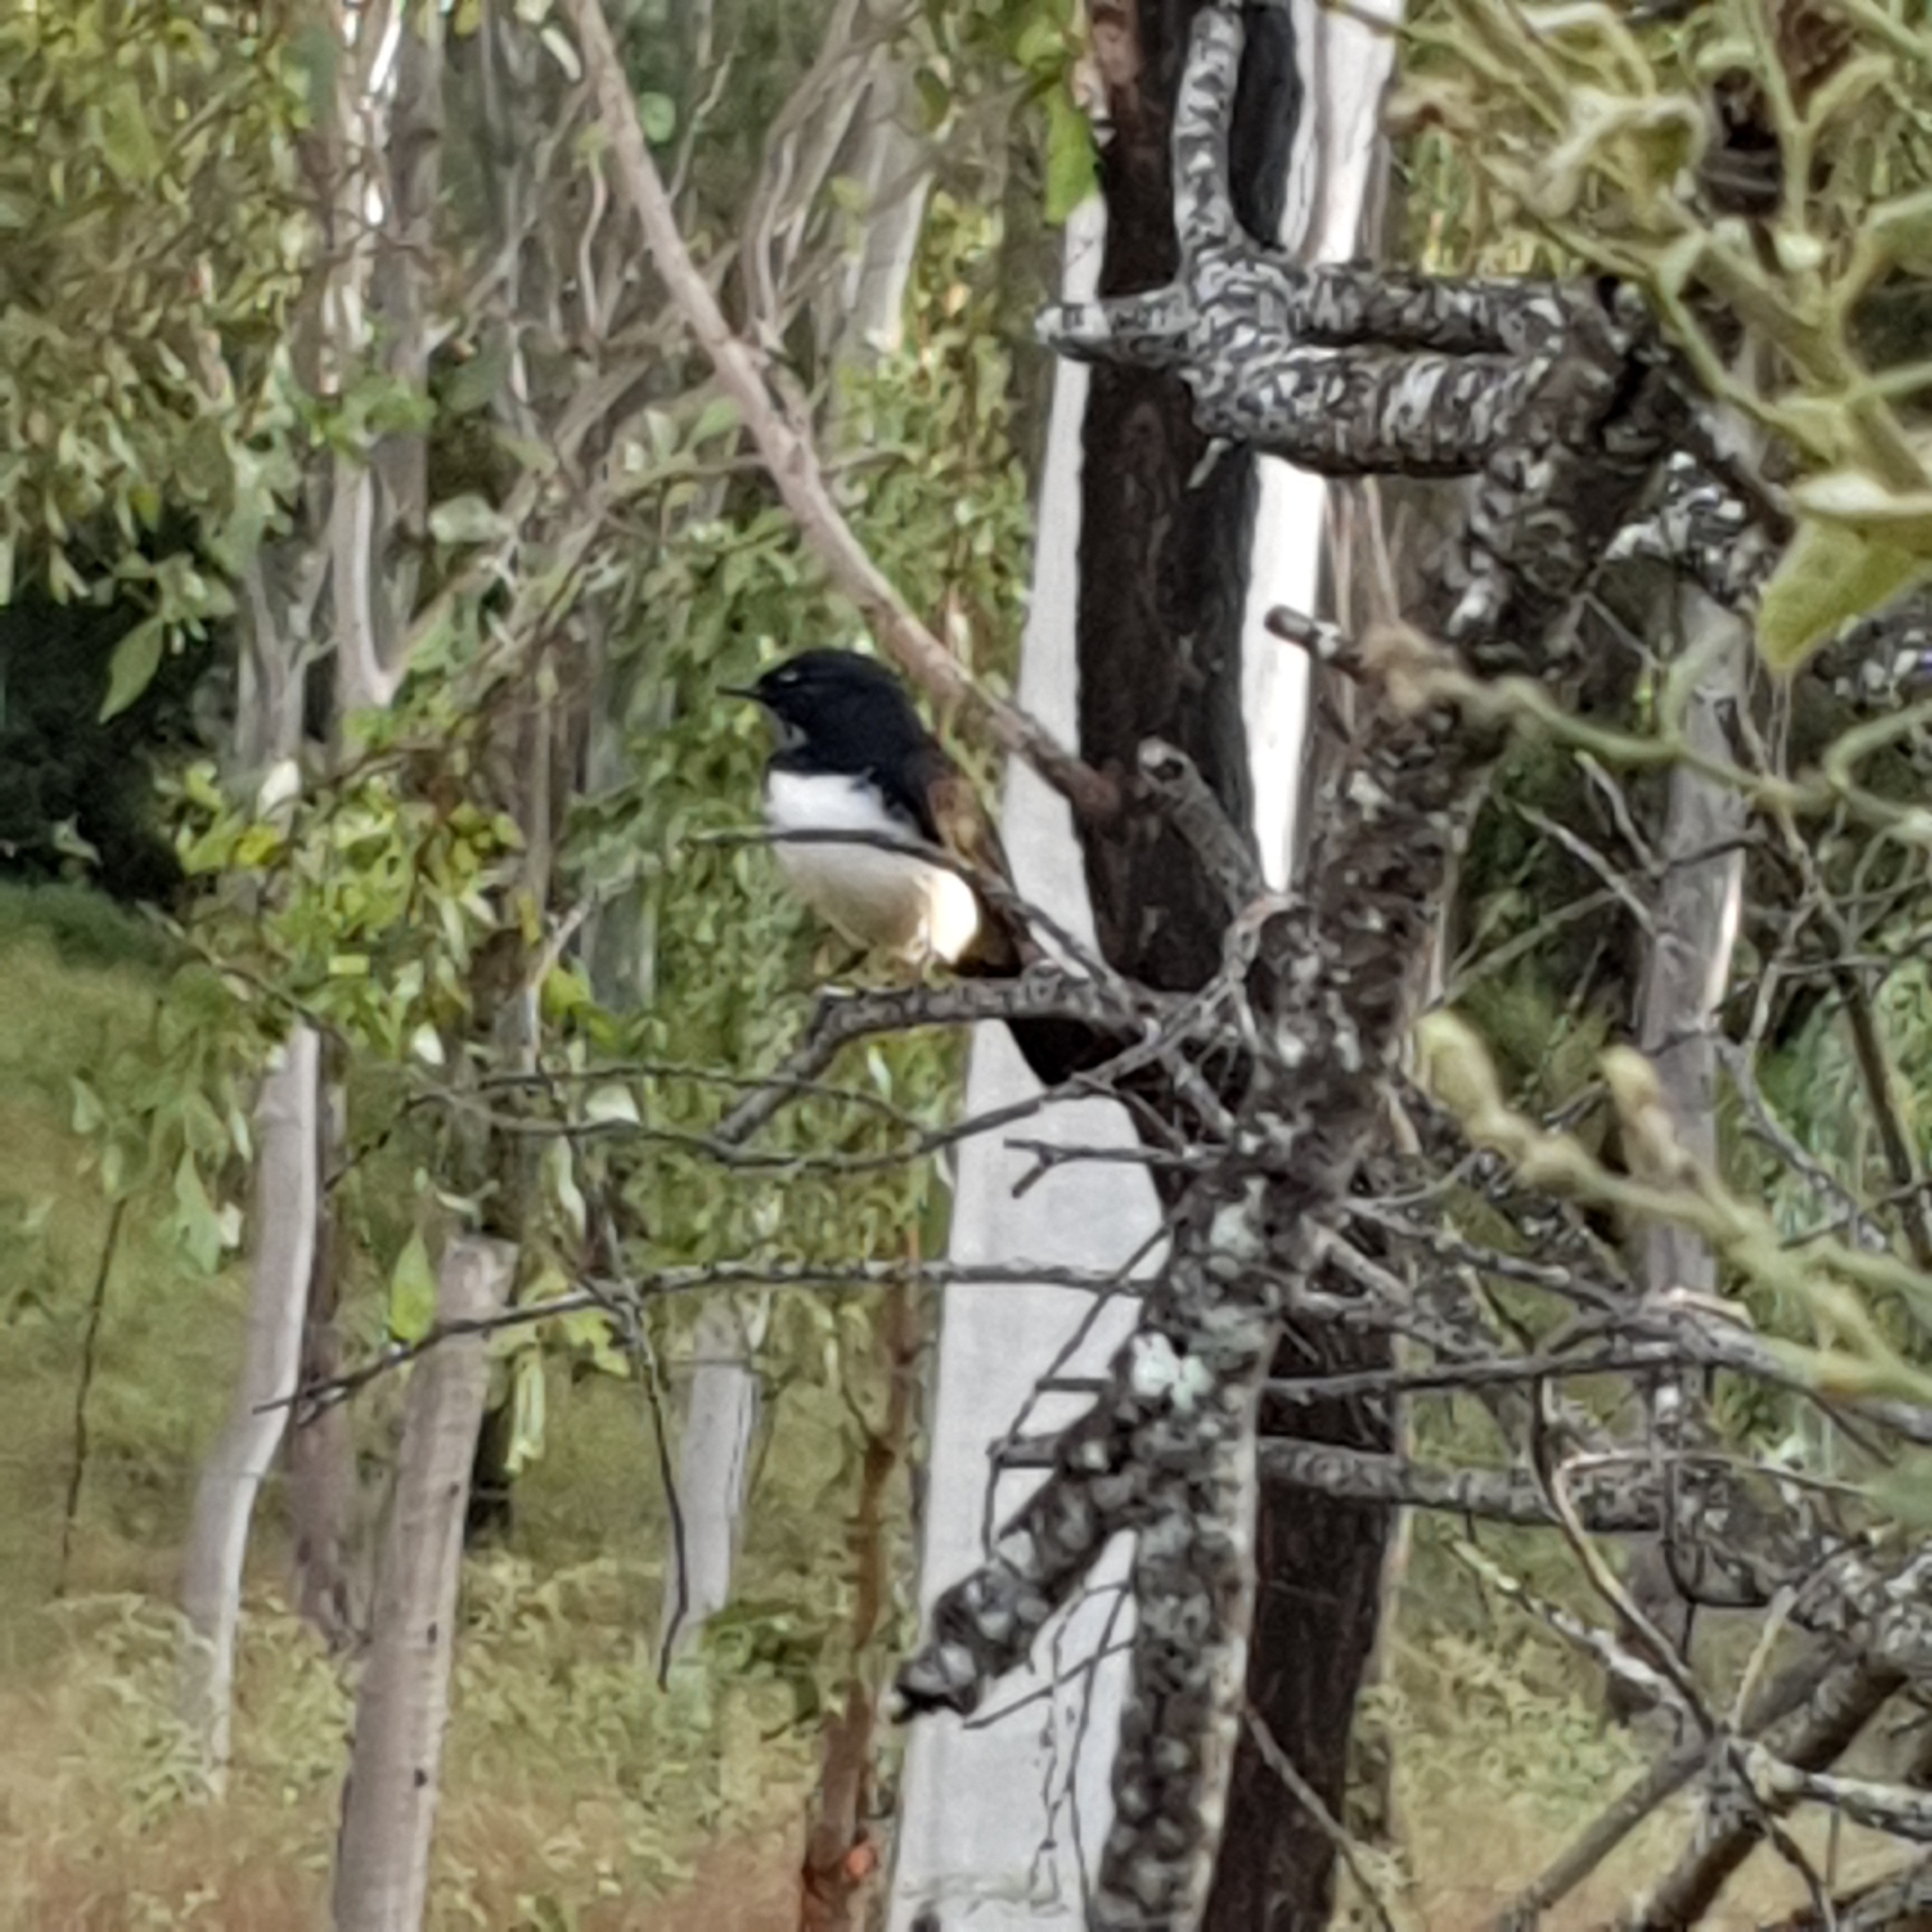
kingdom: Animalia
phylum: Chordata
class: Aves
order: Passeriformes
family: Rhipiduridae
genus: Rhipidura
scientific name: Rhipidura leucophrys
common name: Willie wagtail
